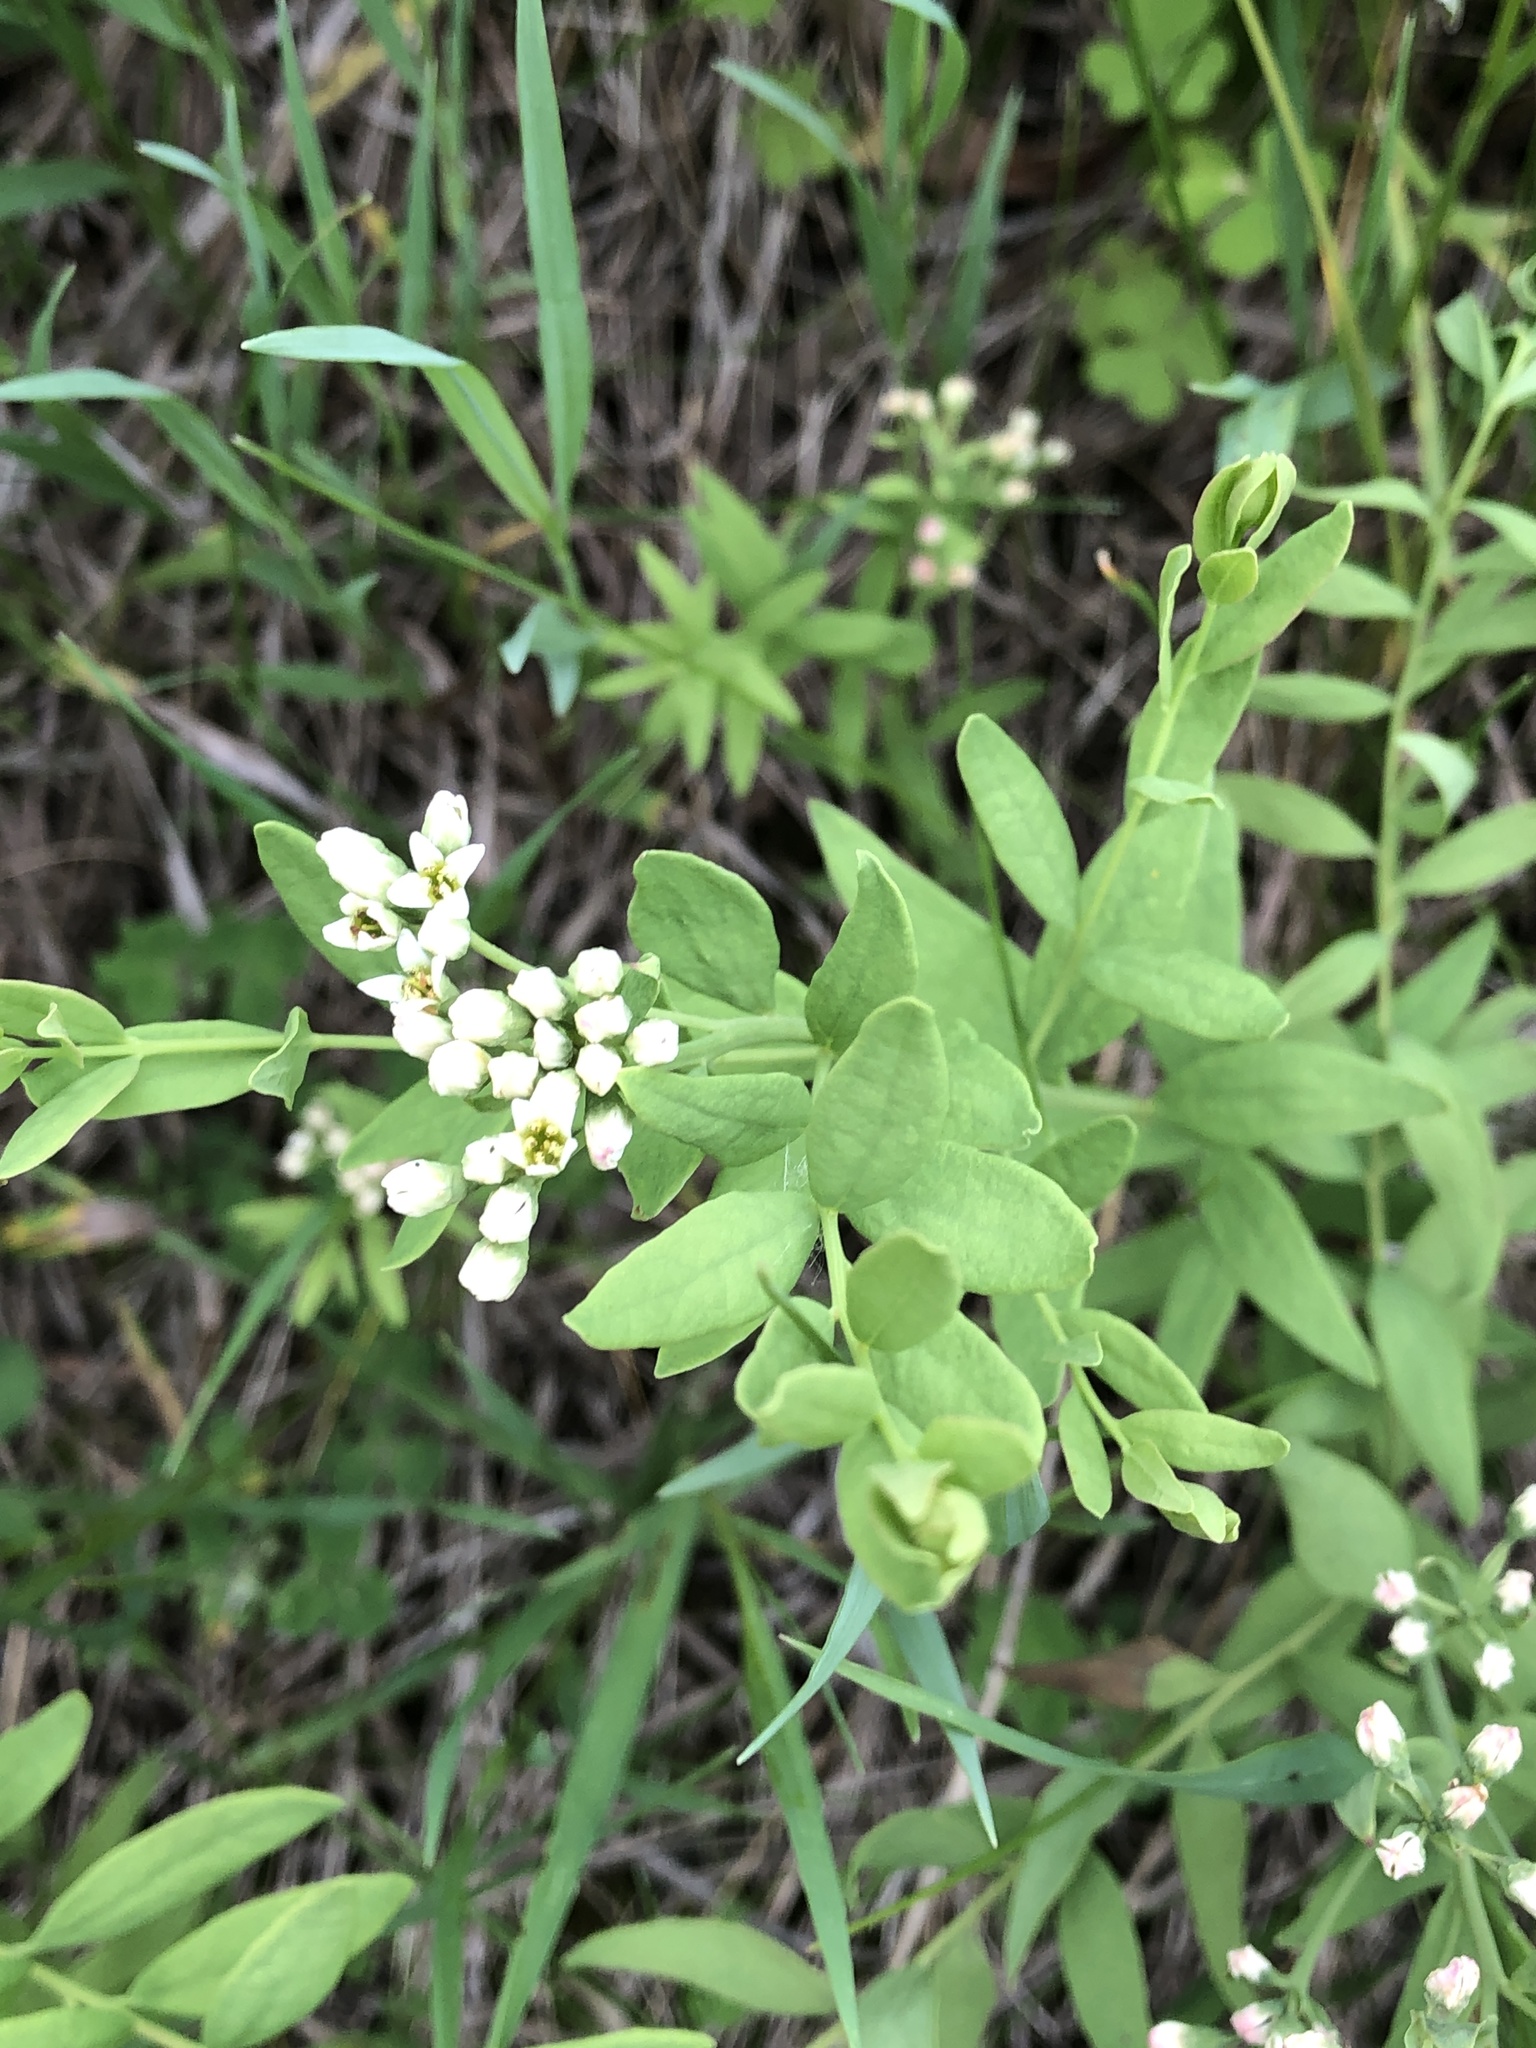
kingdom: Plantae
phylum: Tracheophyta
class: Magnoliopsida
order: Santalales
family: Comandraceae
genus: Comandra
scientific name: Comandra umbellata
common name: Bastard toadflax
